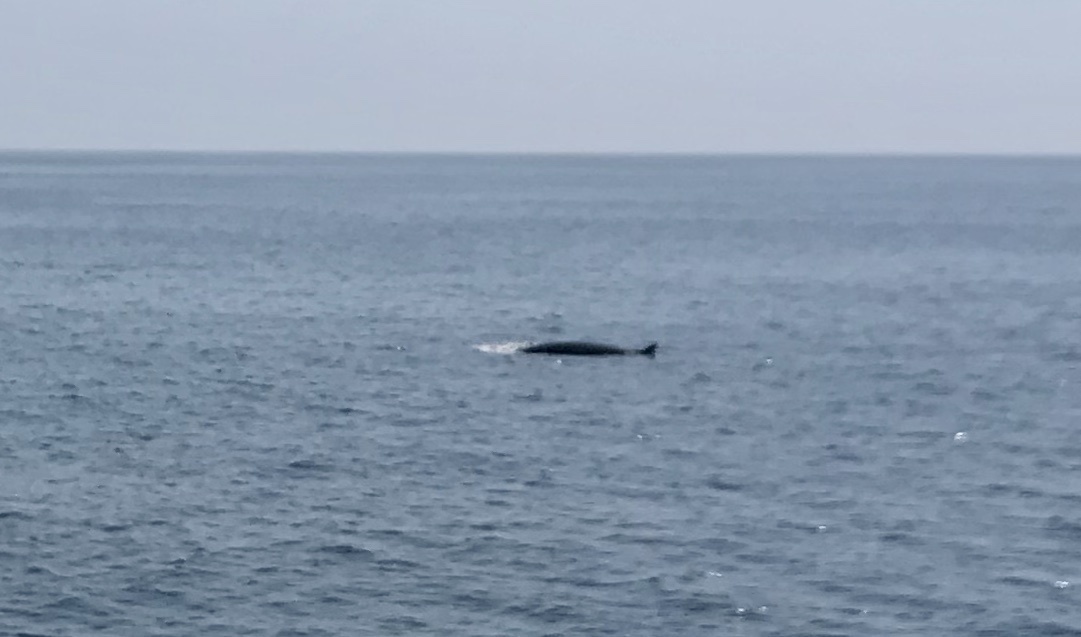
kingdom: Animalia
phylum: Chordata
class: Mammalia
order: Cetacea
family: Balaenopteridae
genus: Balaenoptera
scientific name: Balaenoptera acutorostrata
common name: Common minke whale
